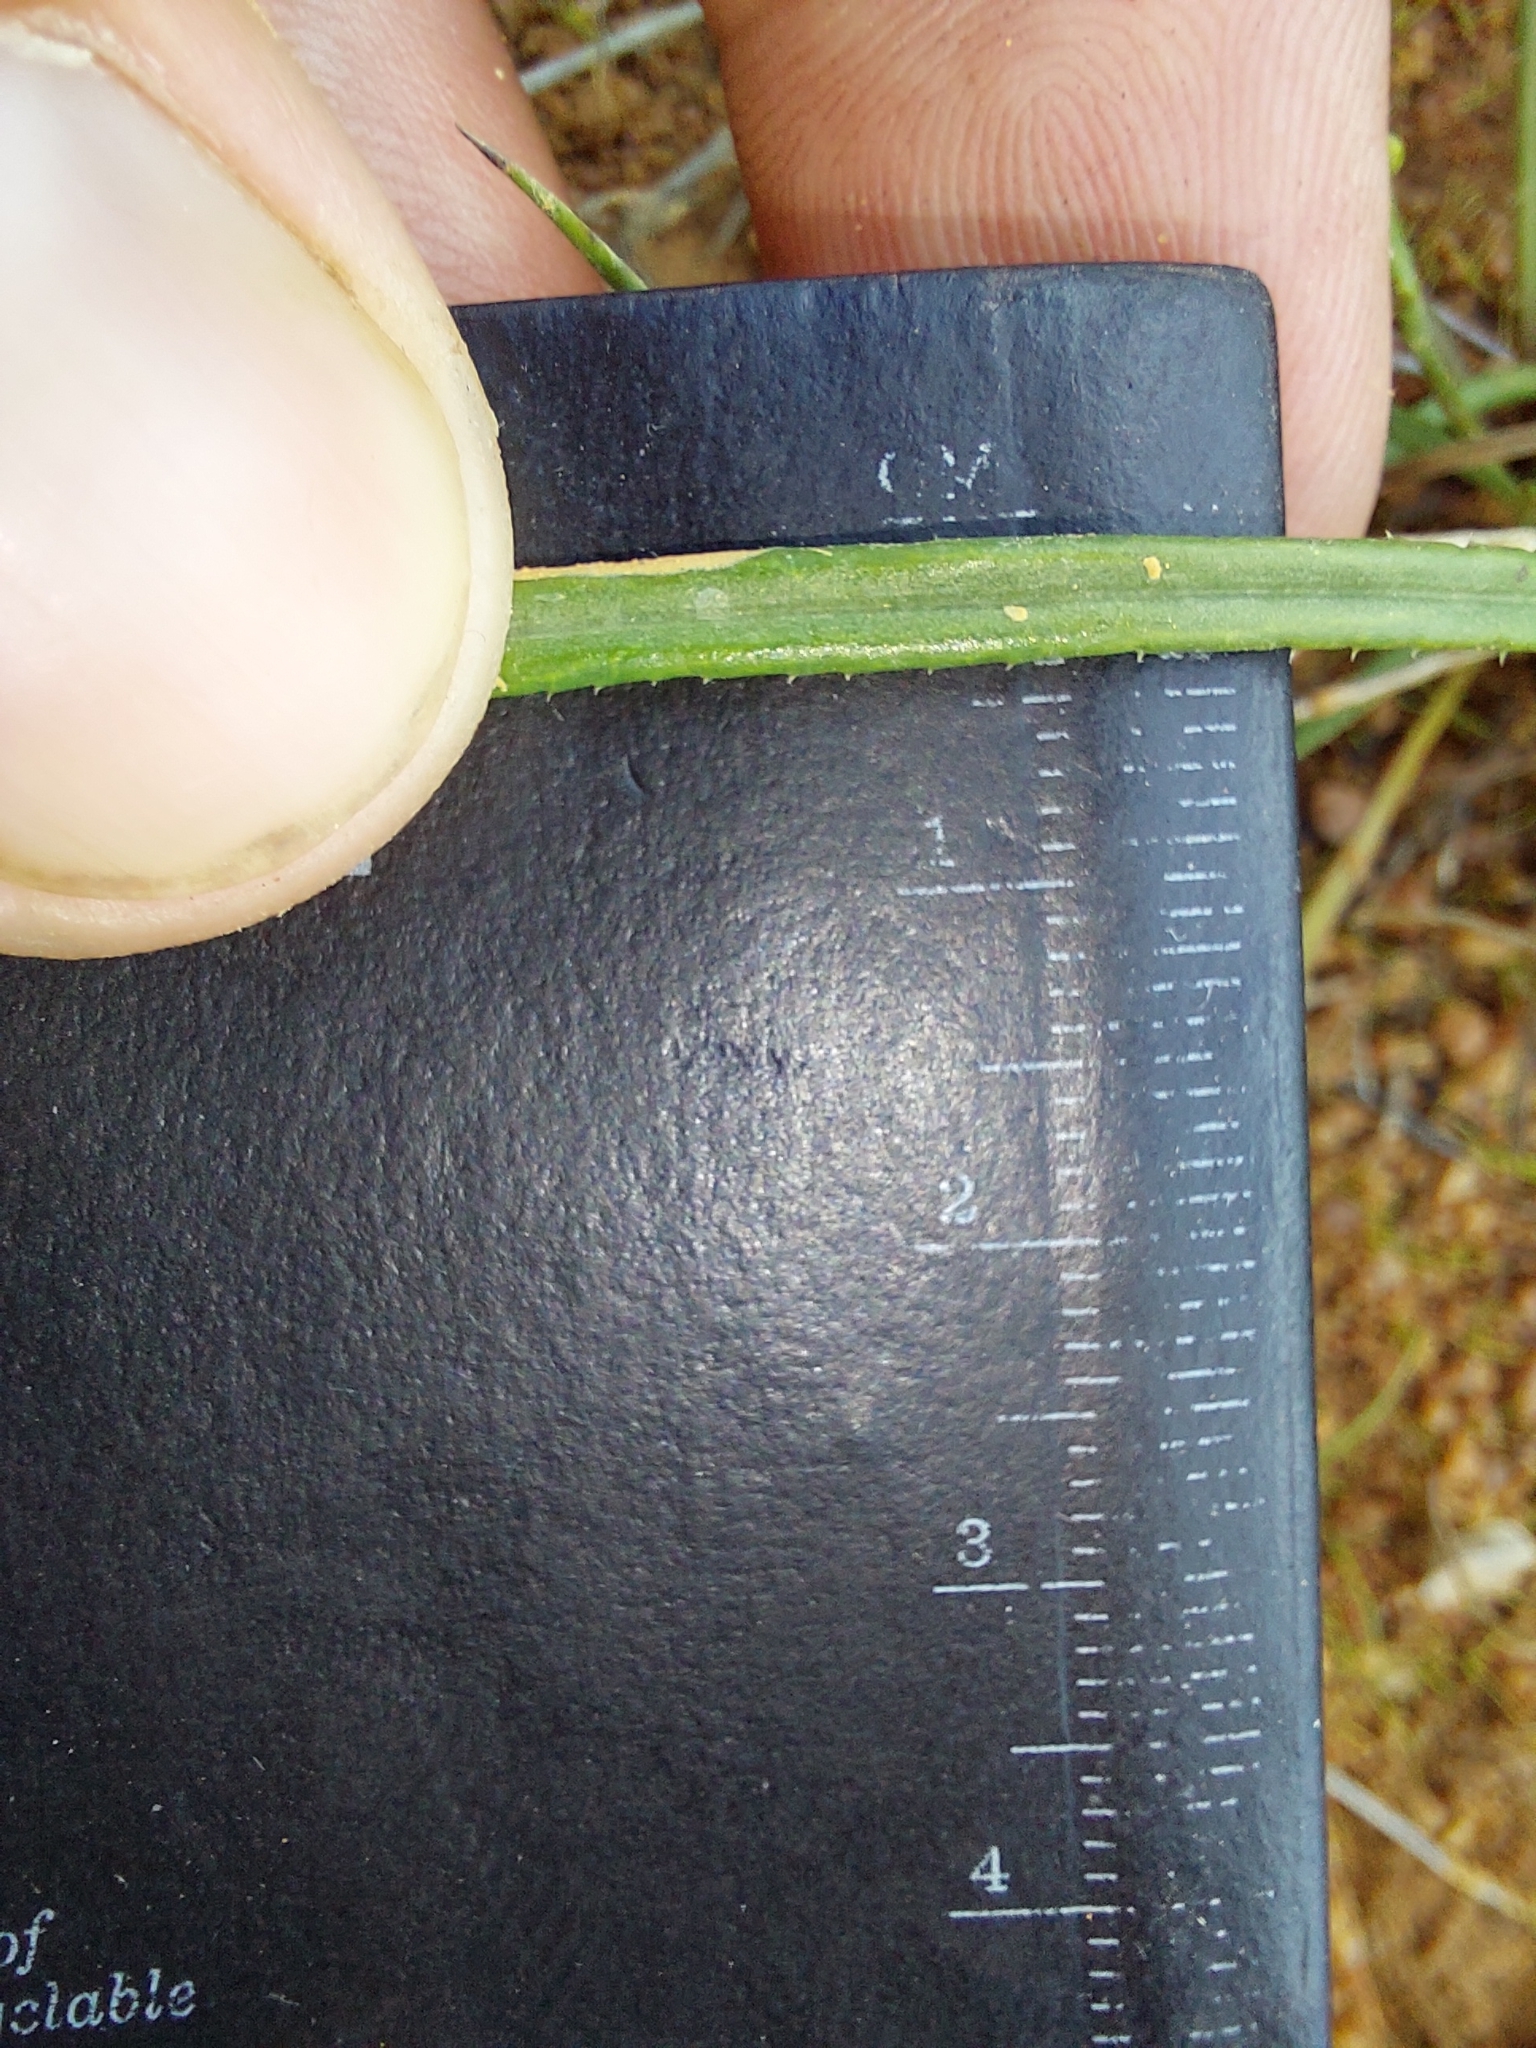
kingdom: Plantae
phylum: Tracheophyta
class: Magnoliopsida
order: Asterales
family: Asteraceae
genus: Gazania
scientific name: Gazania krebsiana
